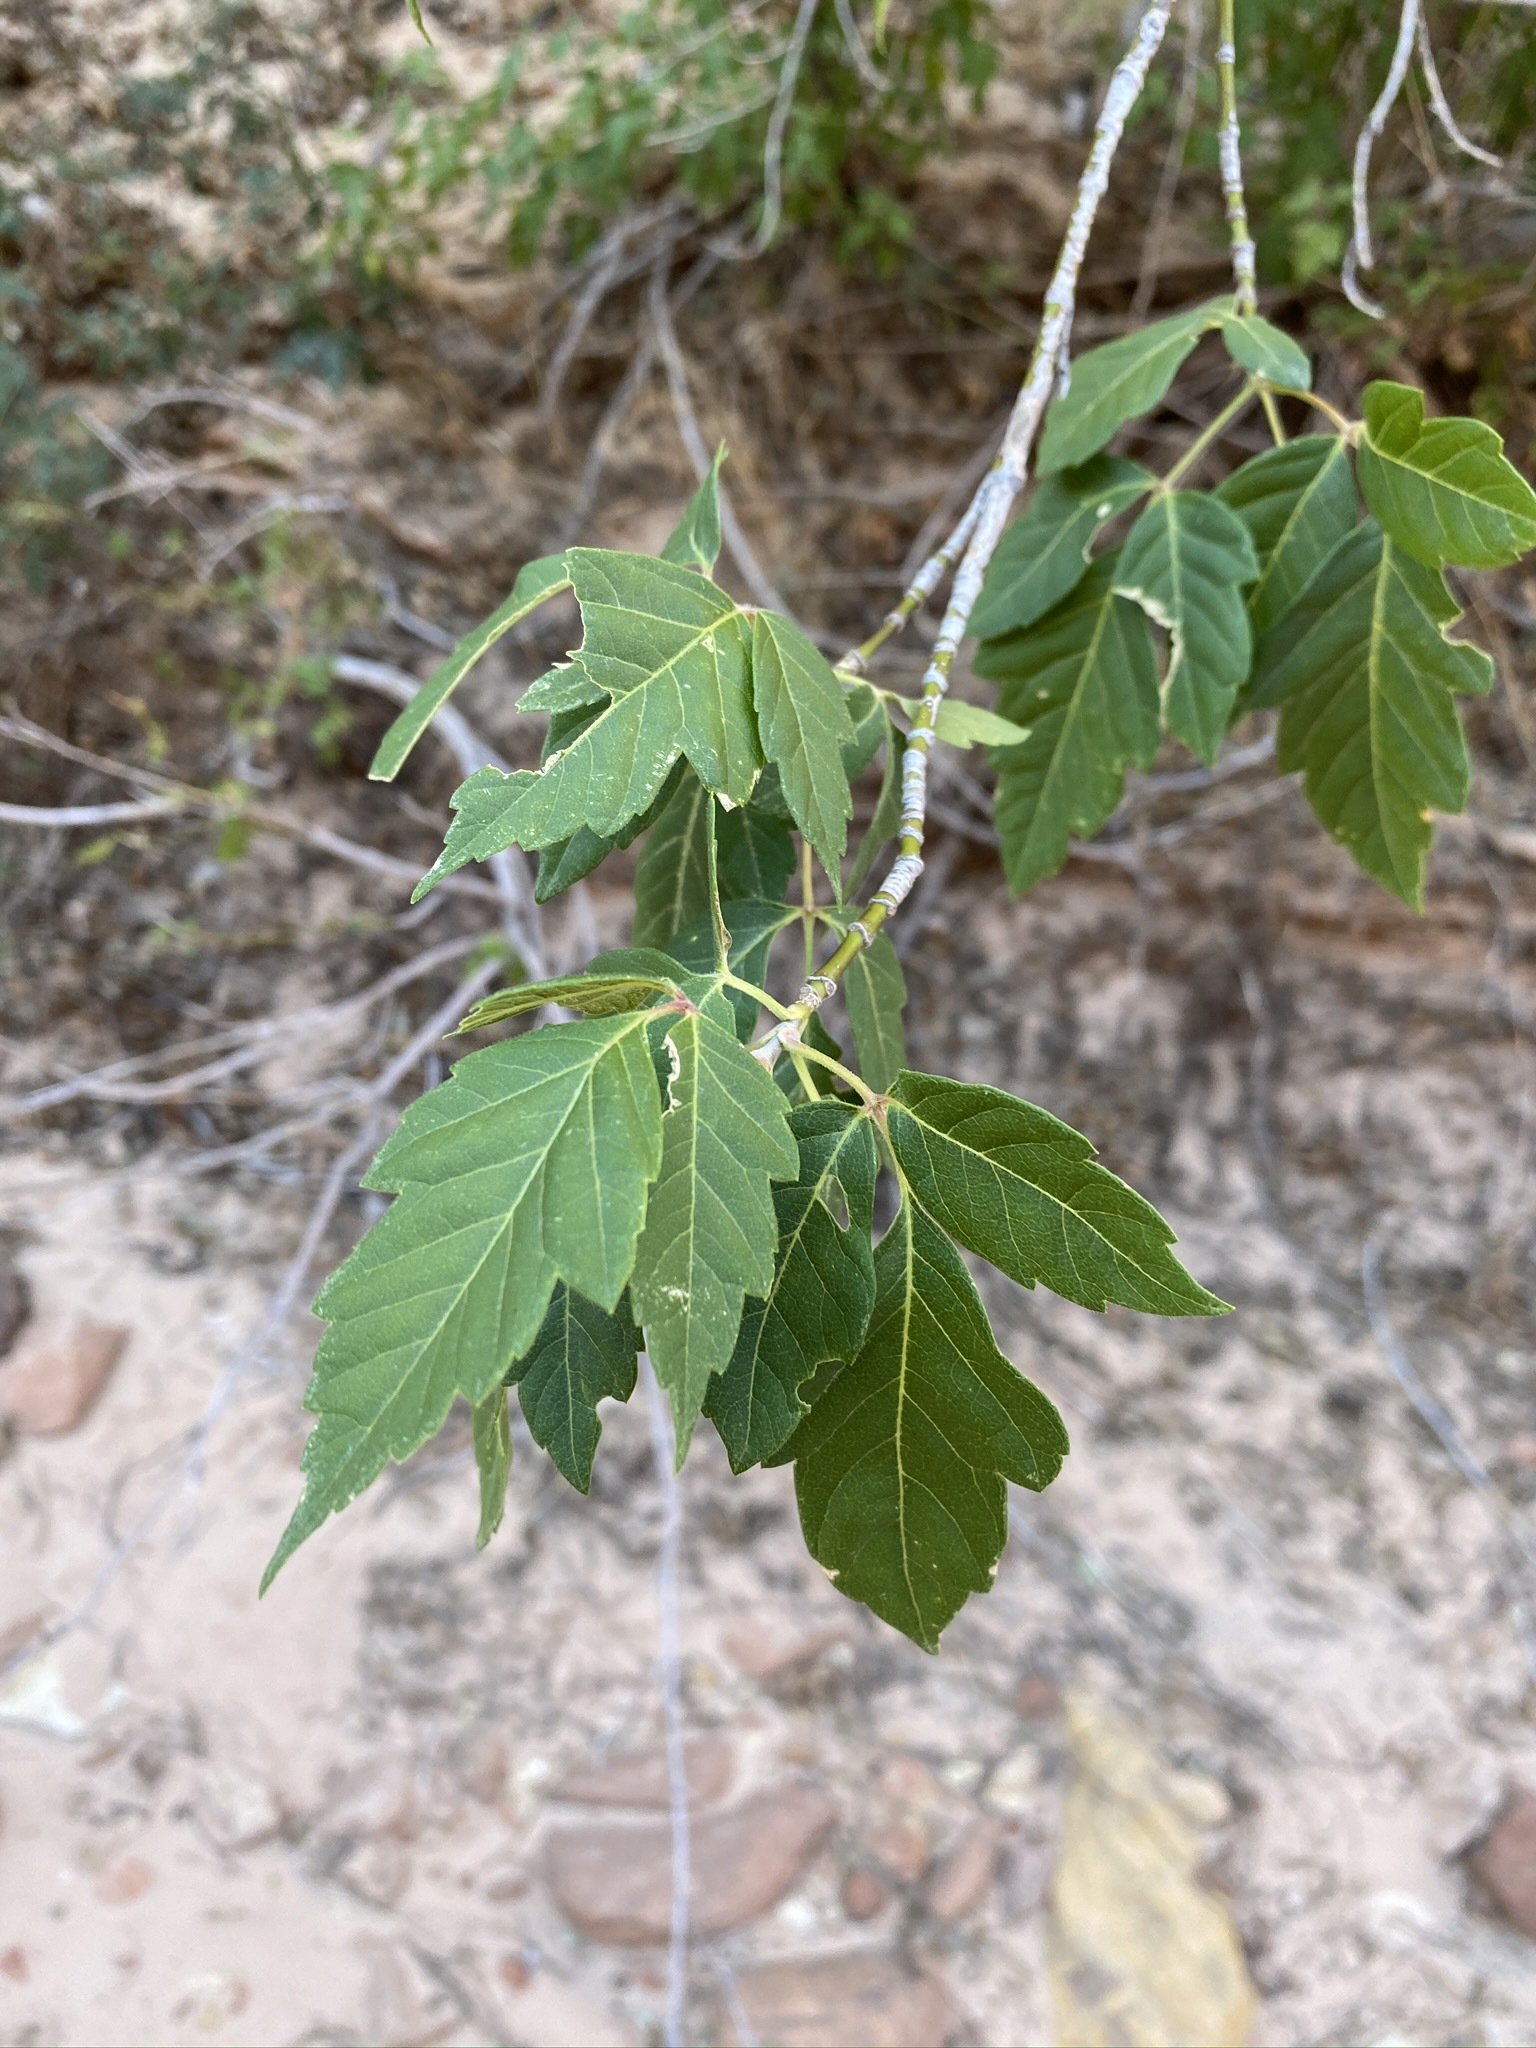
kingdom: Plantae
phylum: Tracheophyta
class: Magnoliopsida
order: Sapindales
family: Sapindaceae
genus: Acer
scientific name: Acer negundo
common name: Ashleaf maple
